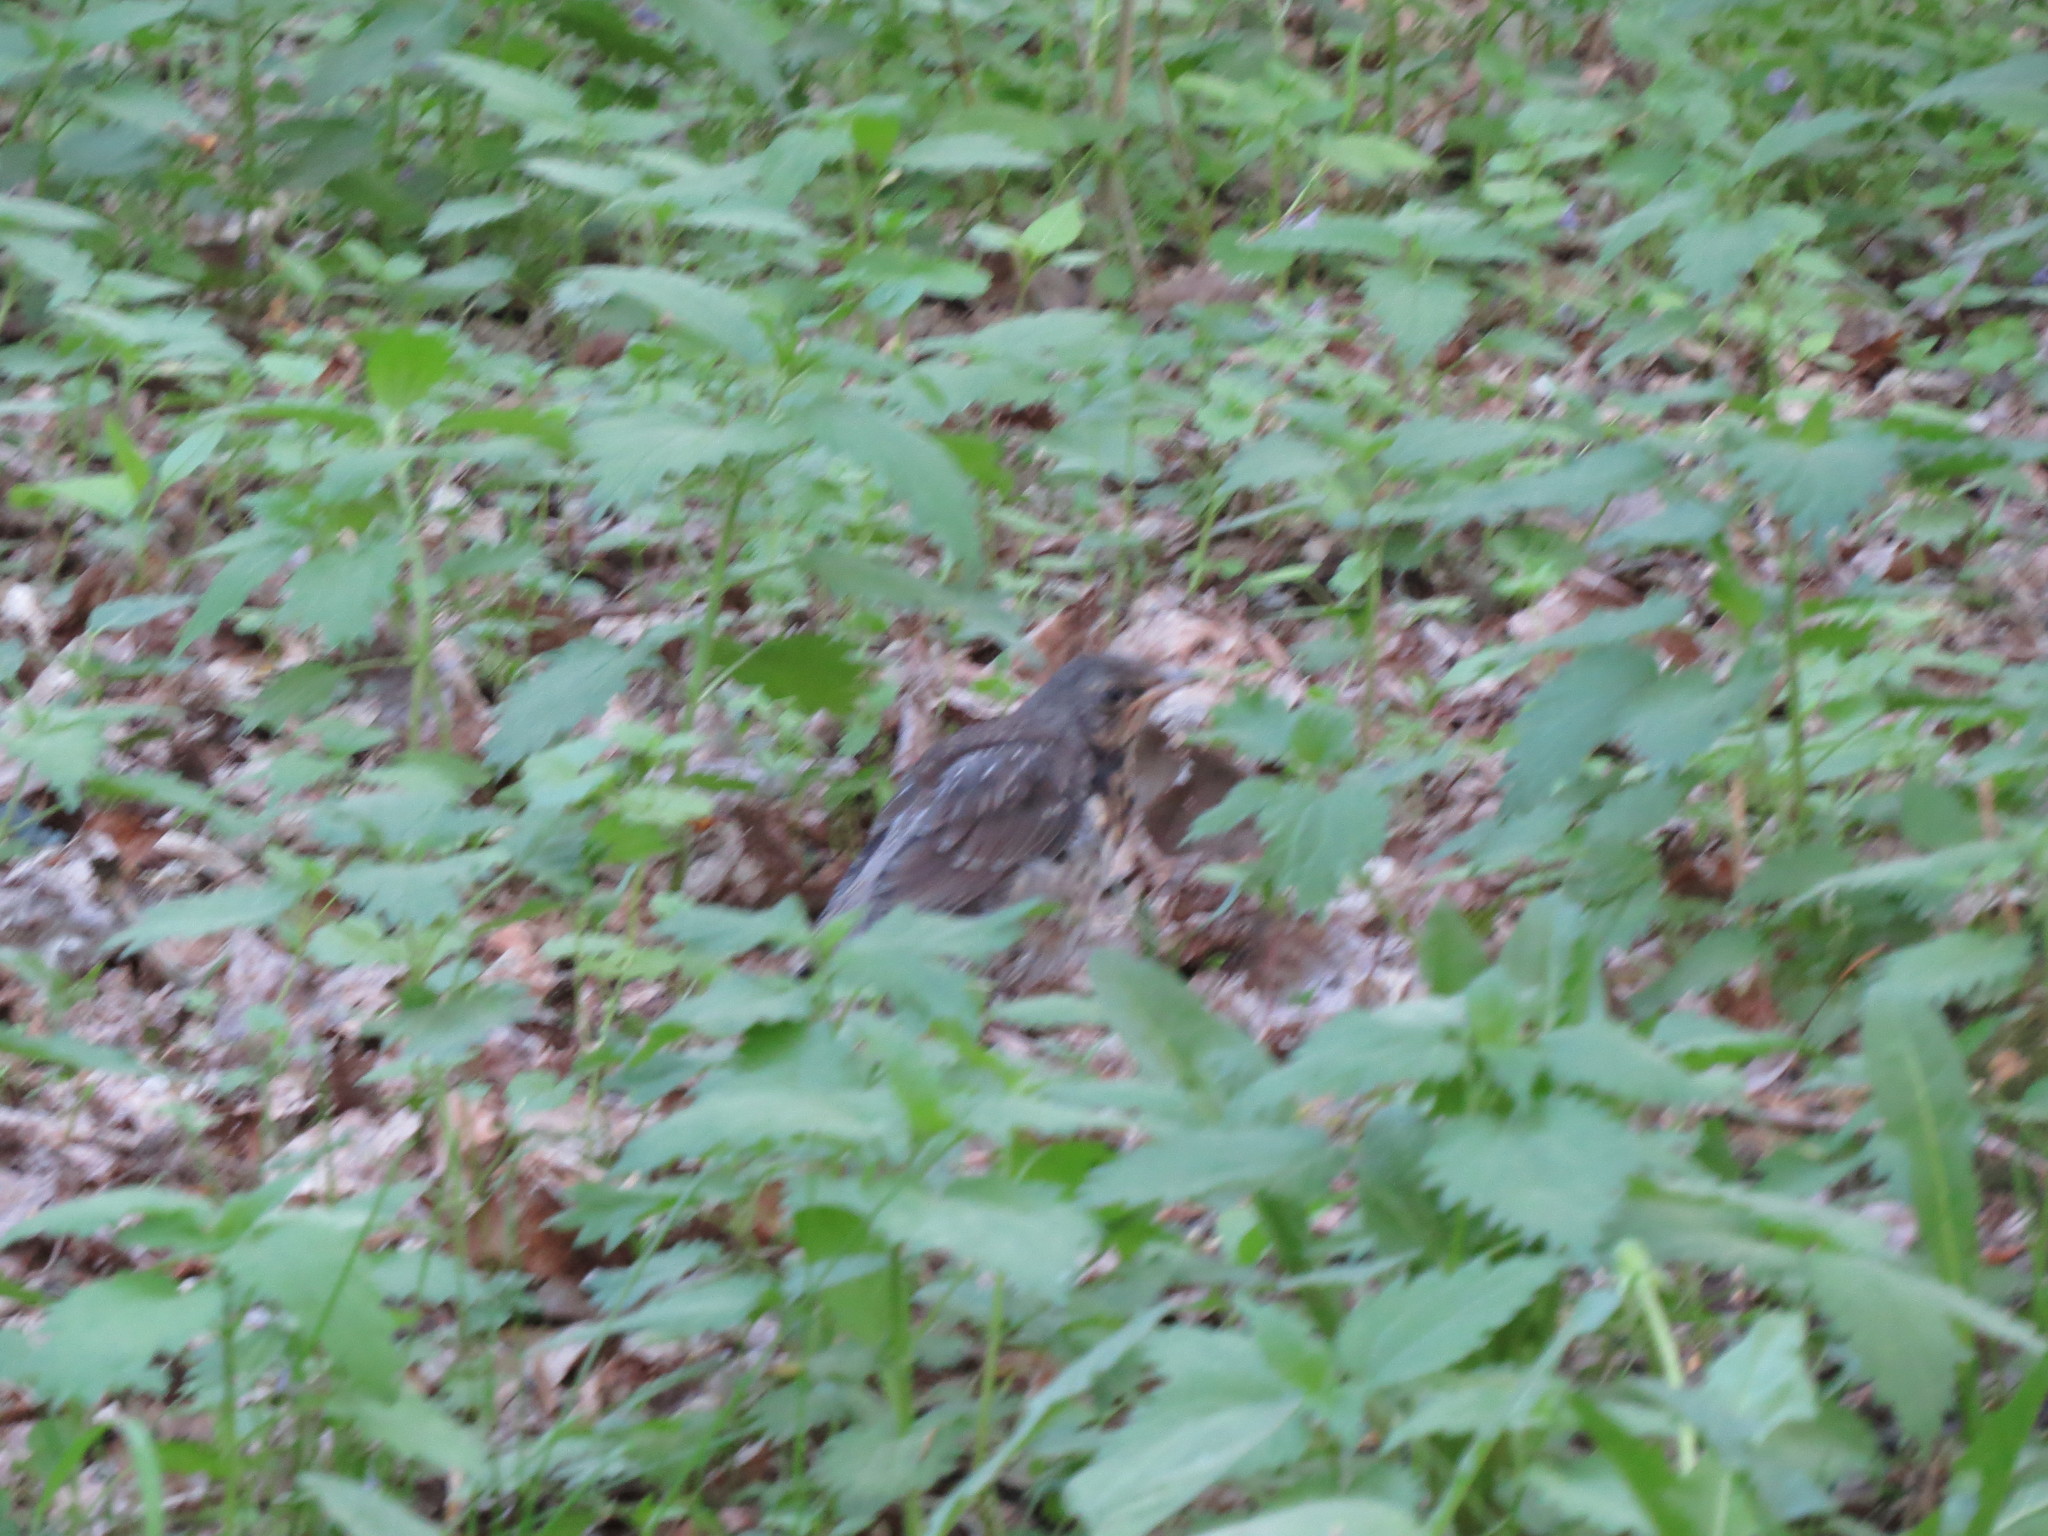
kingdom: Animalia
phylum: Chordata
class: Aves
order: Passeriformes
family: Turdidae
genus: Turdus
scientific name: Turdus pilaris
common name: Fieldfare
